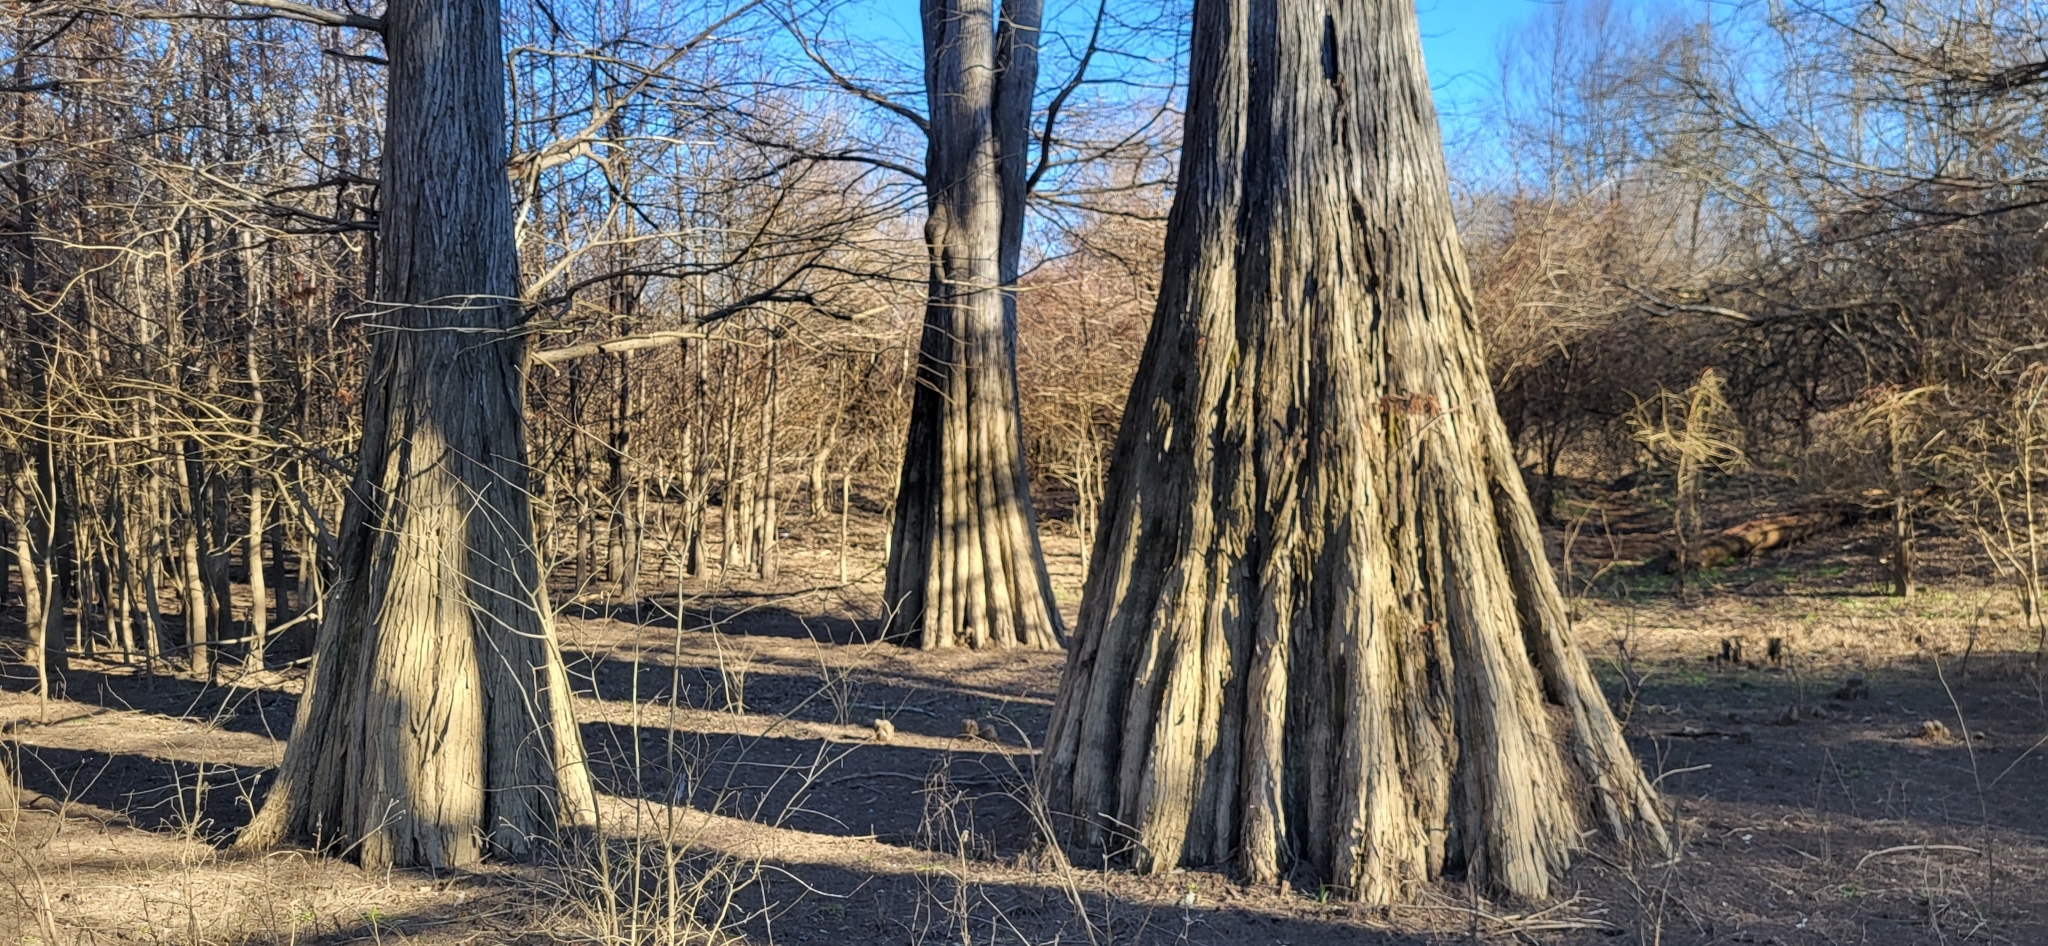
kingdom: Plantae
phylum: Tracheophyta
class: Pinopsida
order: Pinales
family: Cupressaceae
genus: Taxodium
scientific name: Taxodium distichum
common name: Bald cypress
